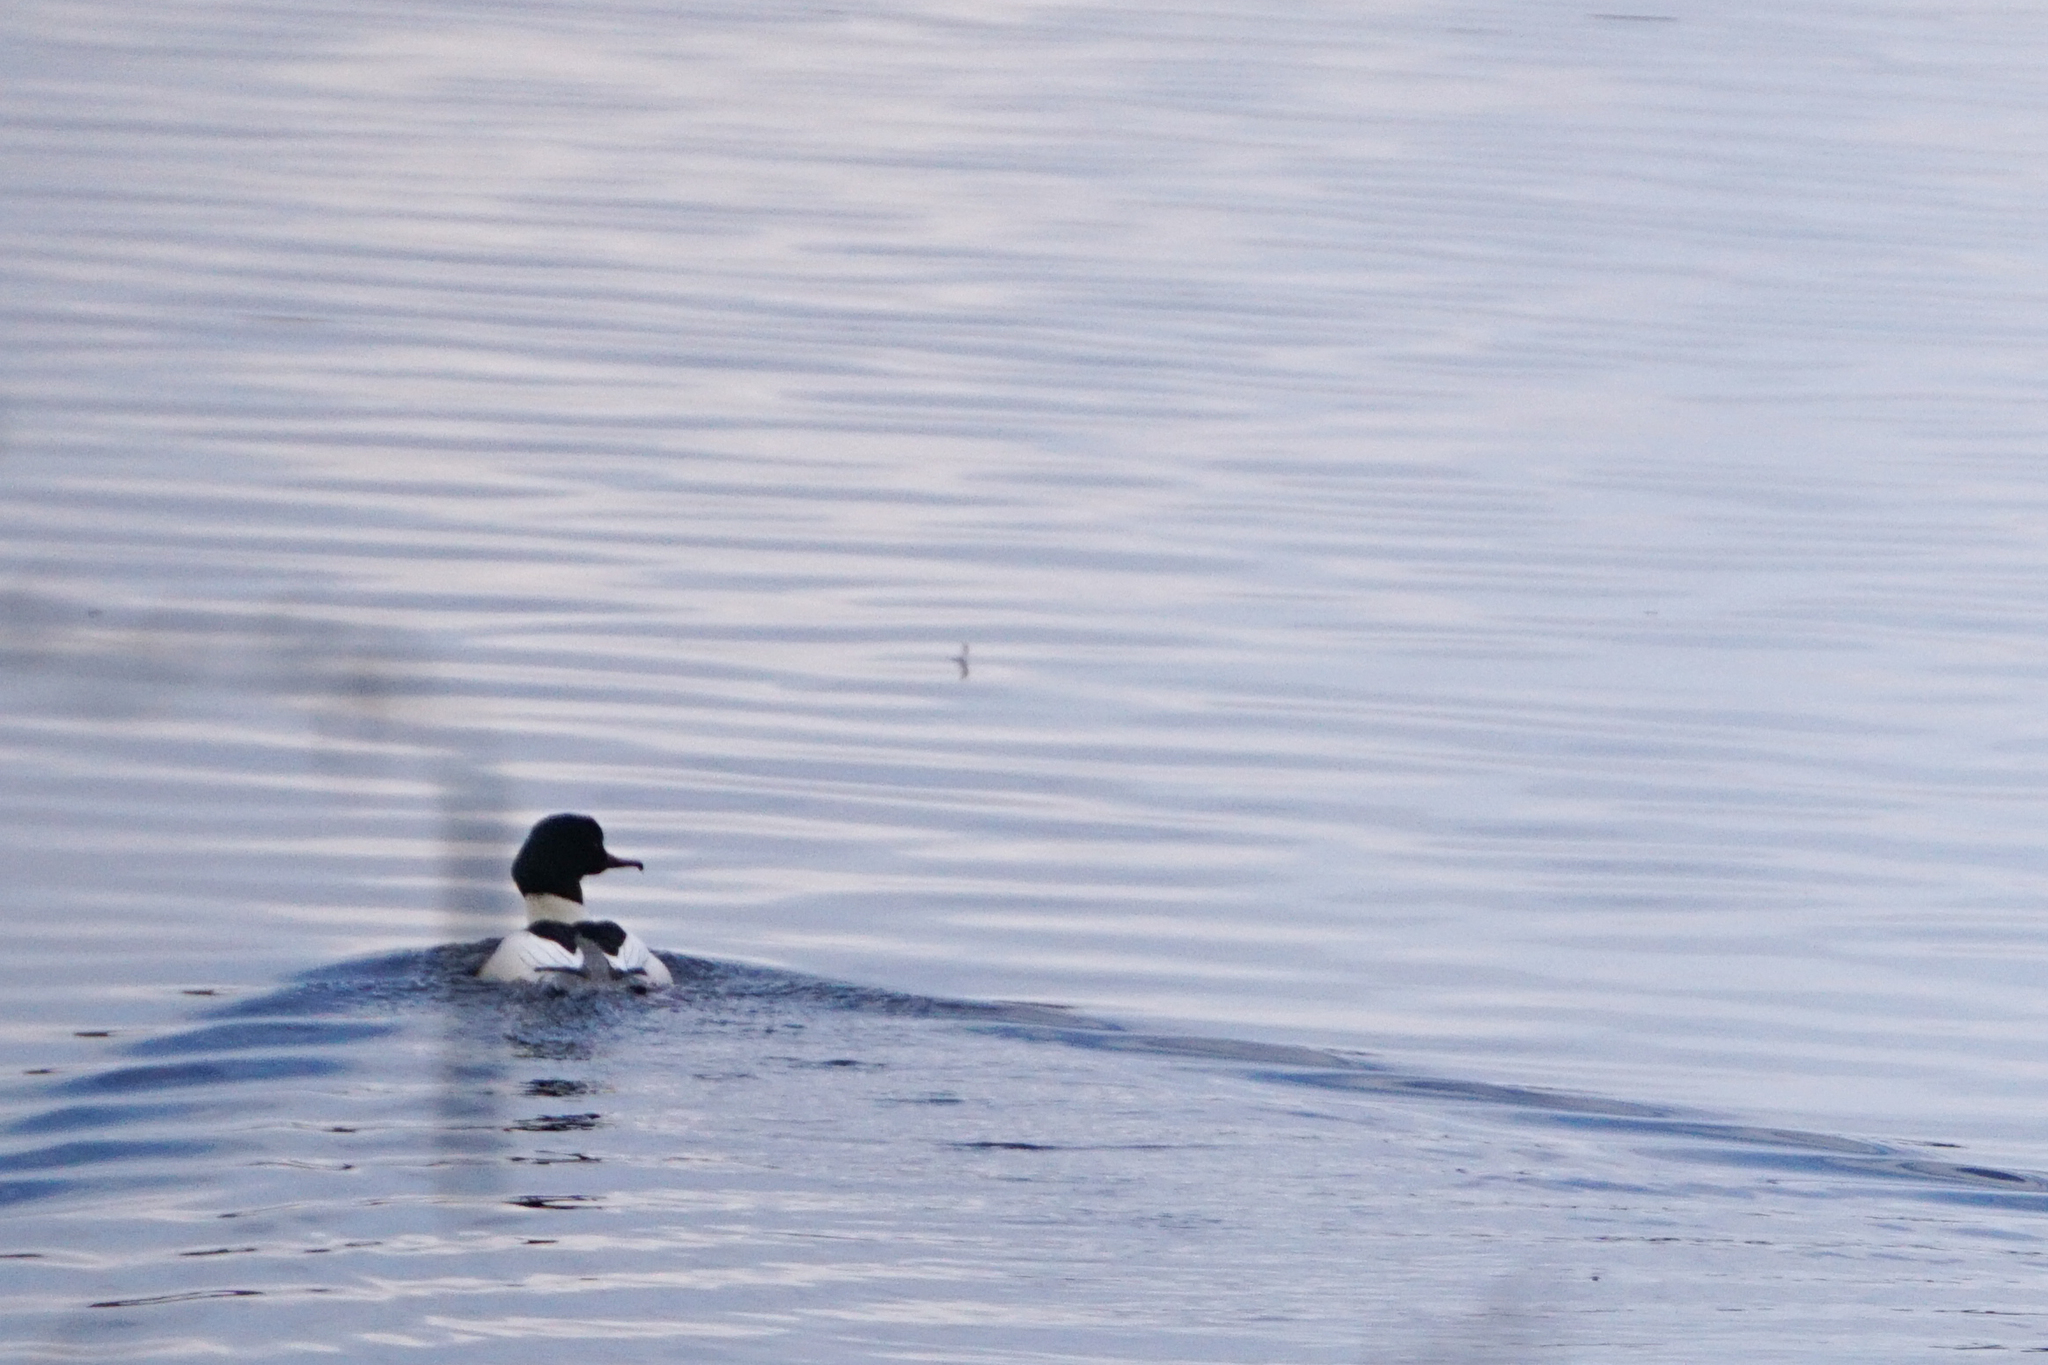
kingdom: Animalia
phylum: Chordata
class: Aves
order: Anseriformes
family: Anatidae
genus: Mergus
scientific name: Mergus merganser
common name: Common merganser
